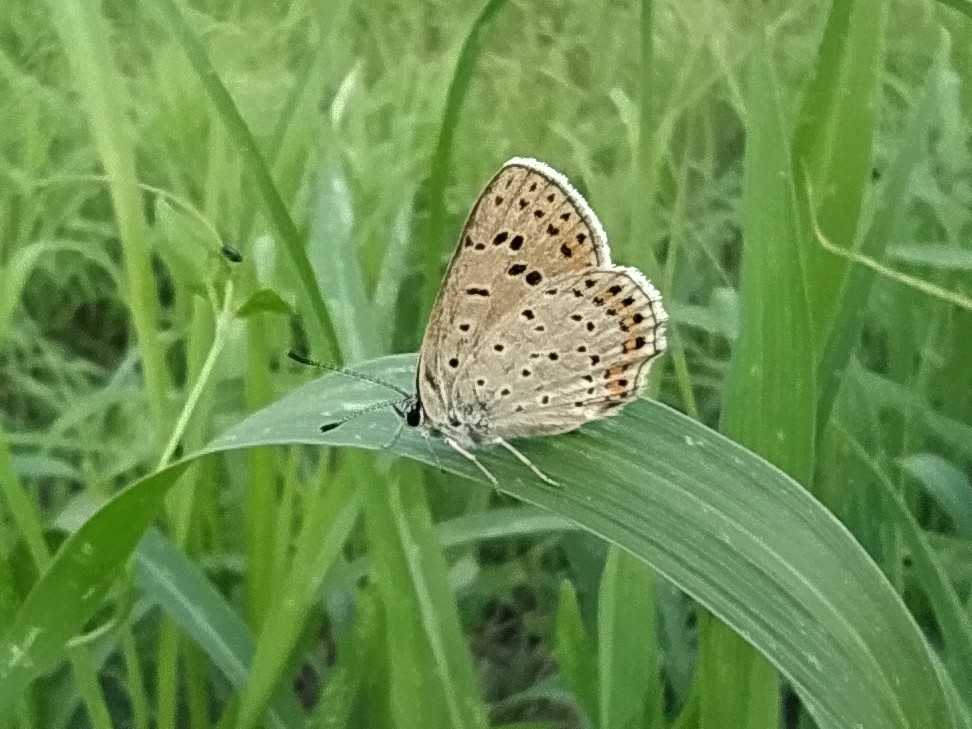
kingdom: Animalia
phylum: Arthropoda
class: Insecta
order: Lepidoptera
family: Lycaenidae
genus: Loweia
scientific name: Loweia tityrus
